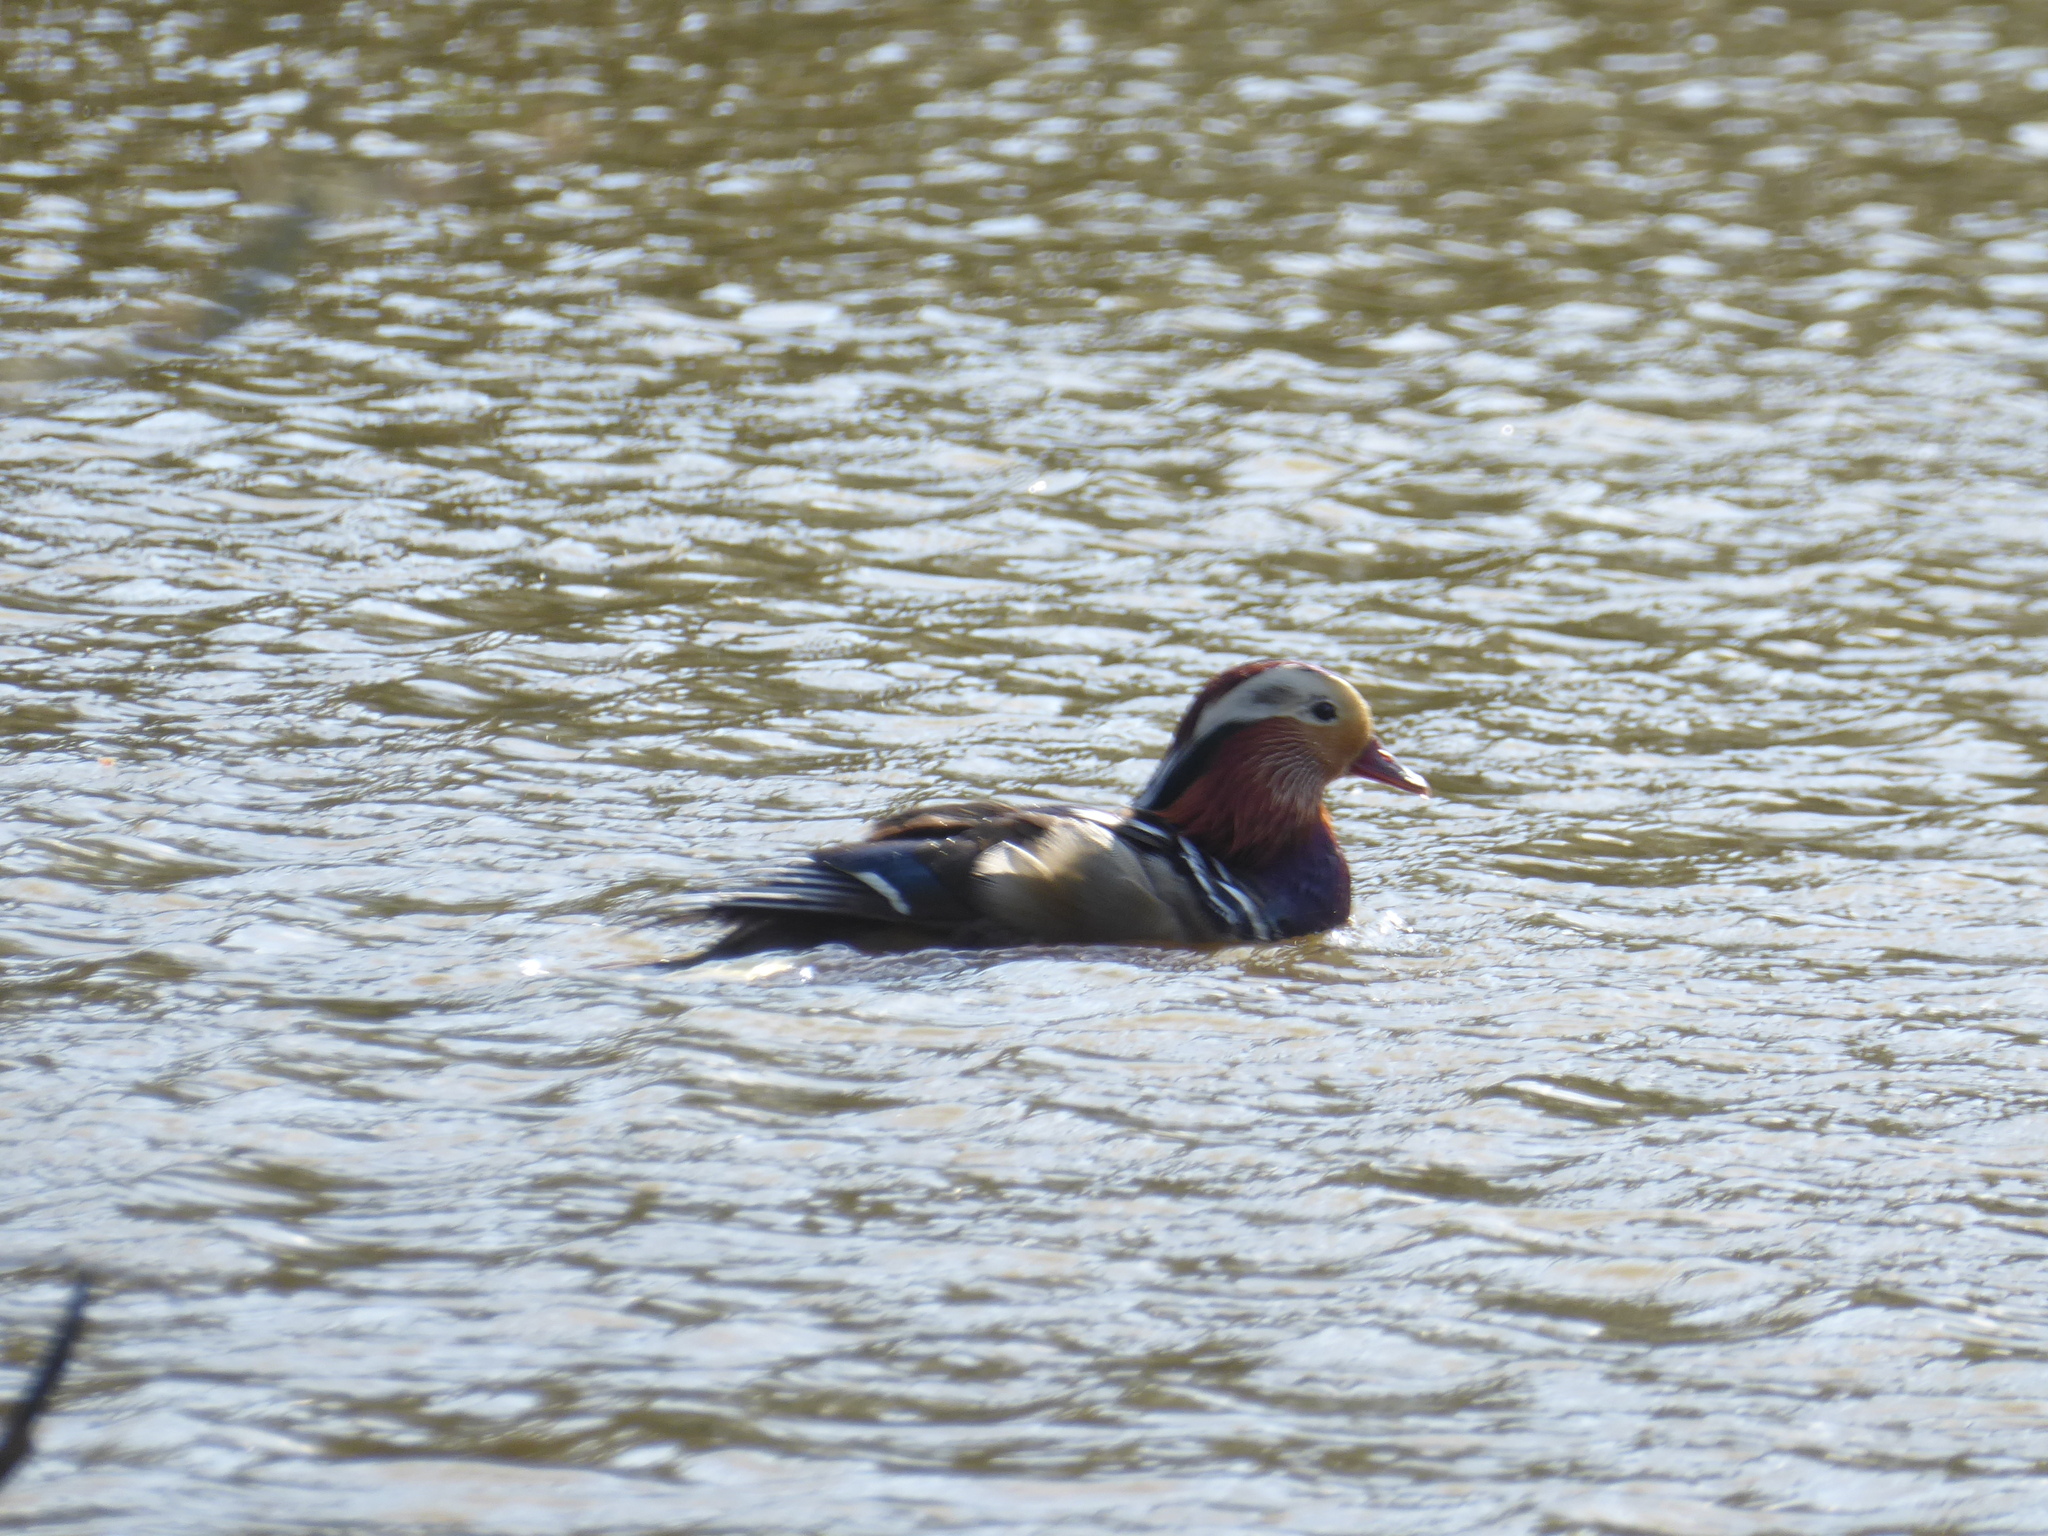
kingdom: Animalia
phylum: Chordata
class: Aves
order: Anseriformes
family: Anatidae
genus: Aix
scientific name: Aix galericulata
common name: Mandarin duck
